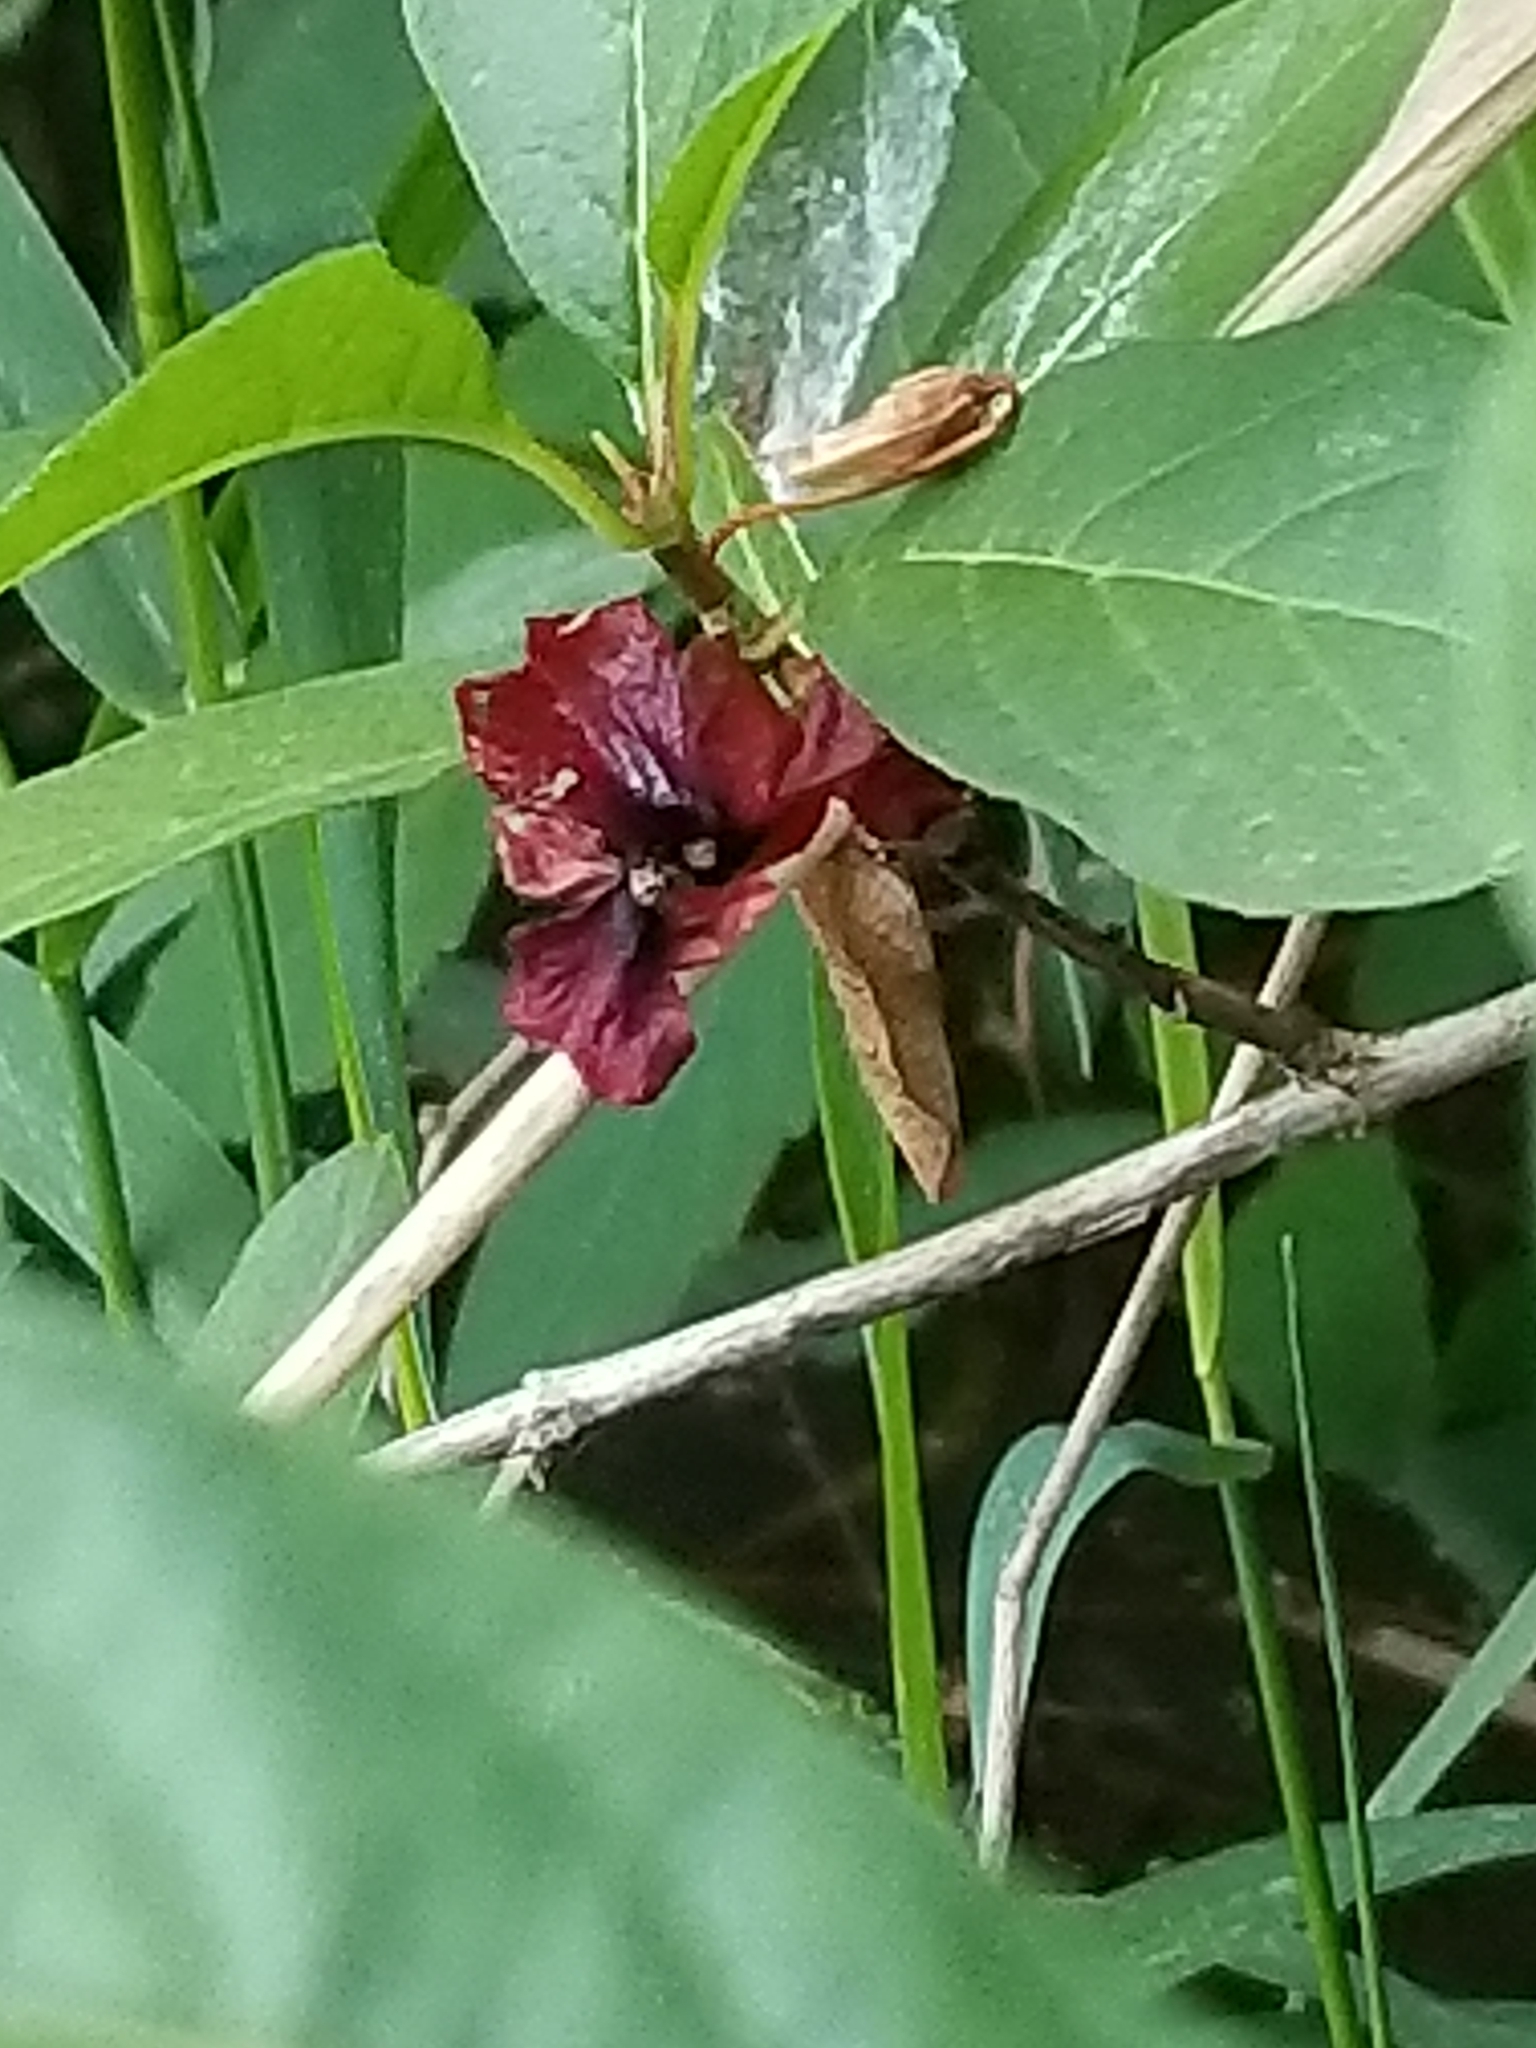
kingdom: Plantae
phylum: Tracheophyta
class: Magnoliopsida
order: Dipsacales
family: Caprifoliaceae
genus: Lonicera
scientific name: Lonicera involucrata
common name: Californian honeysuckle
